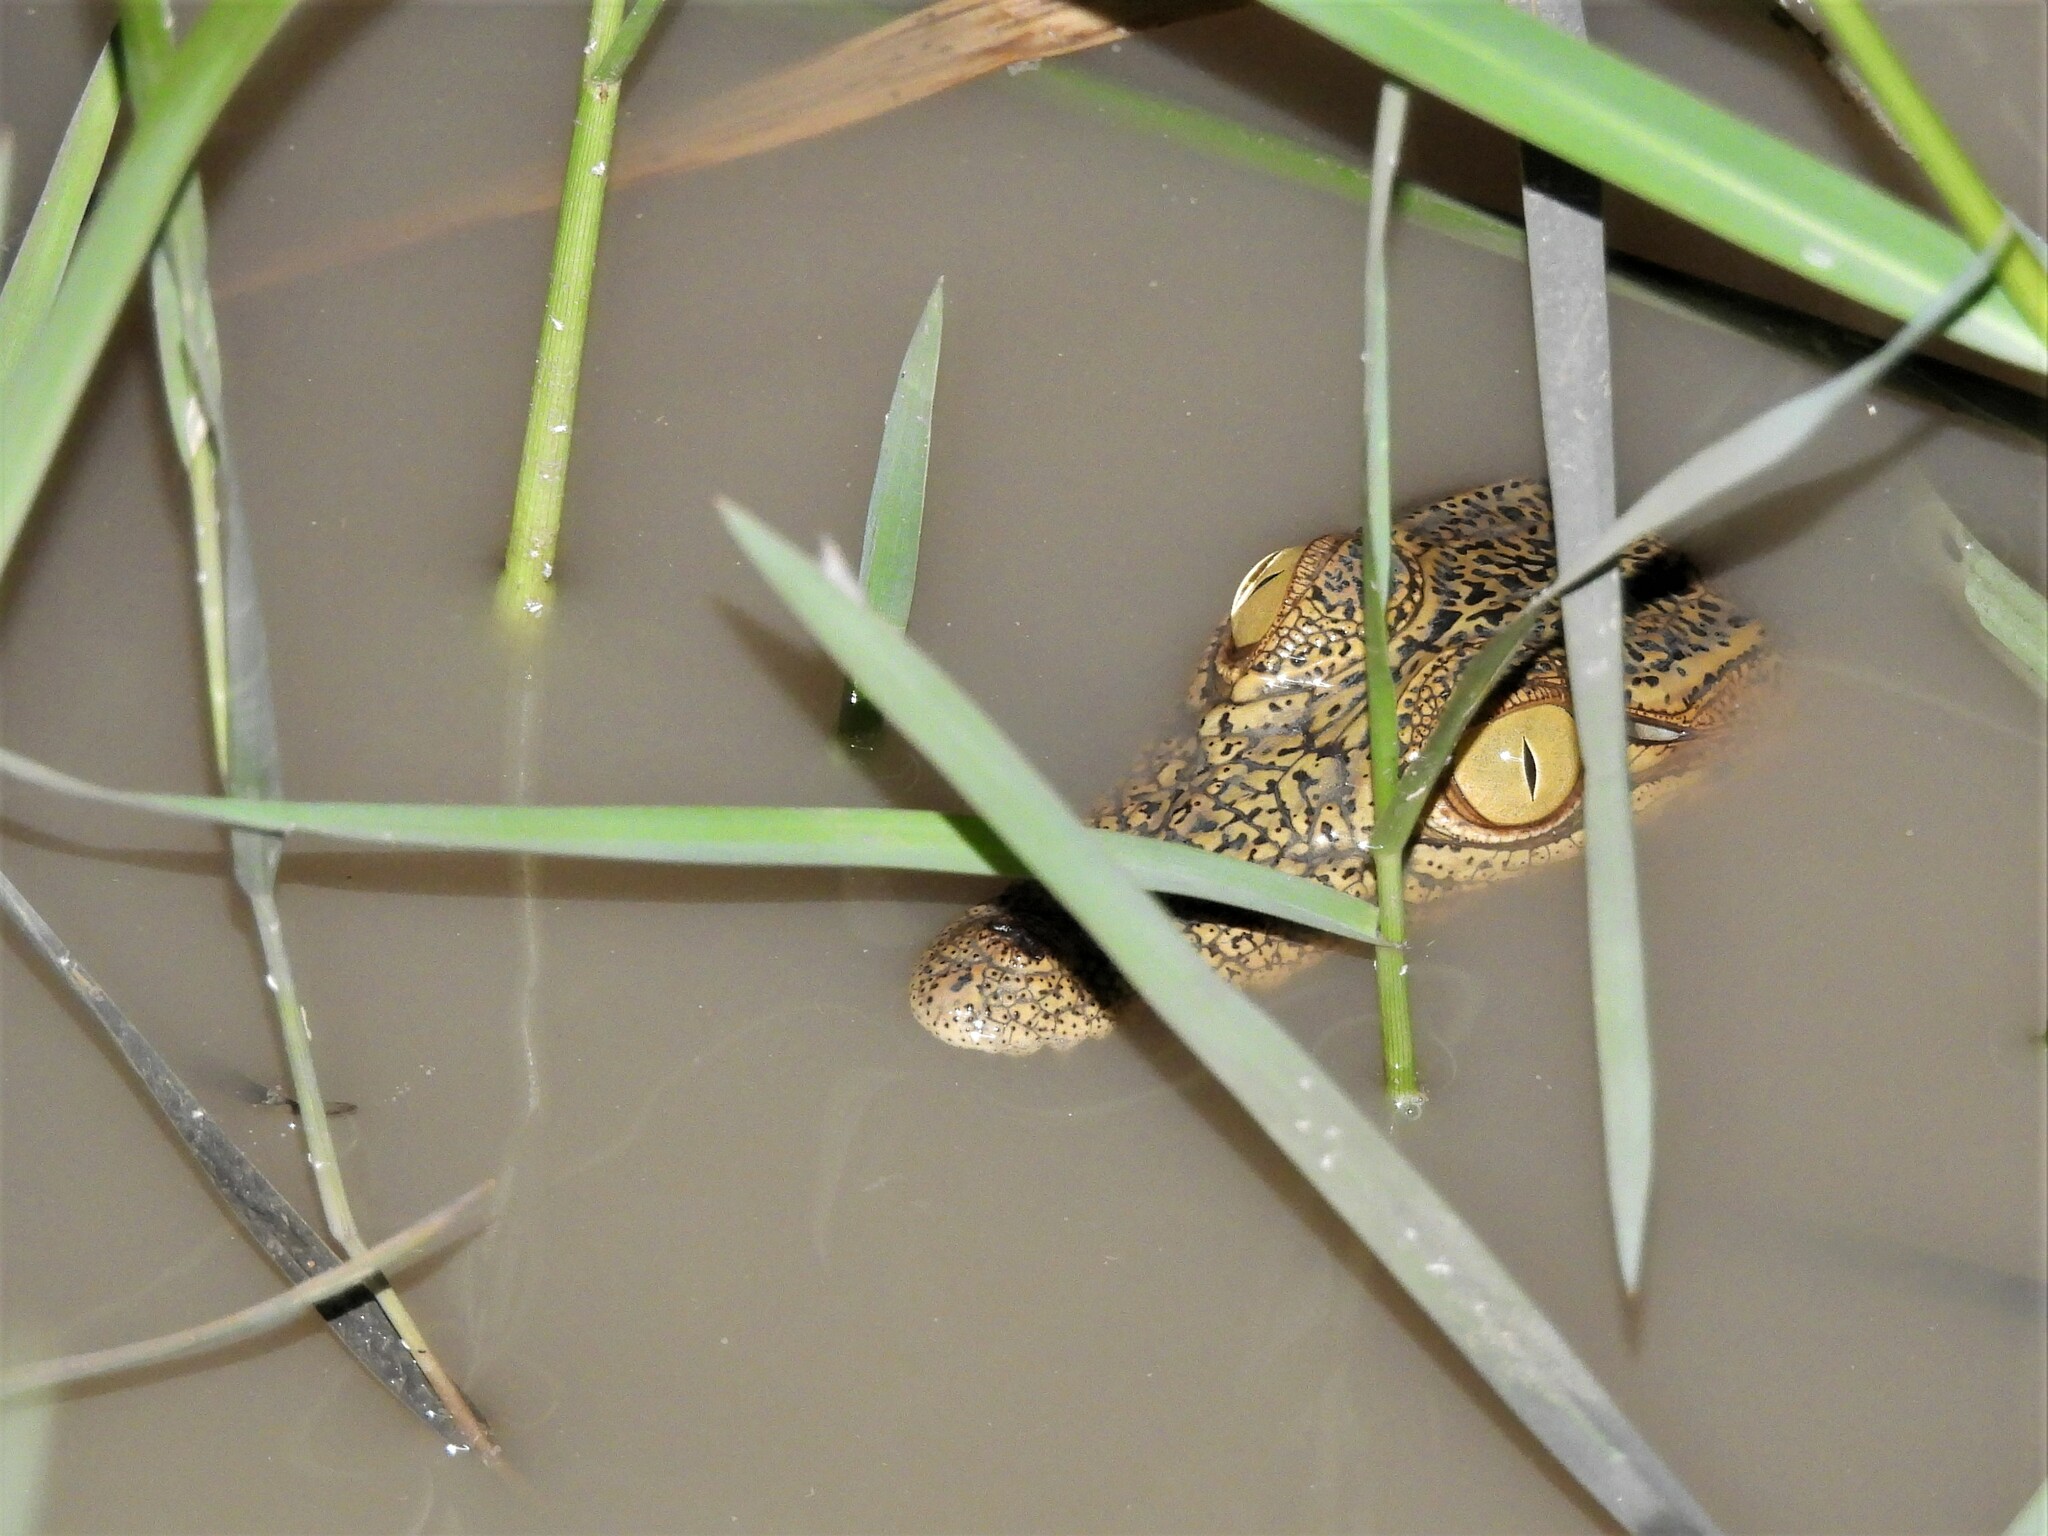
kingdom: Animalia
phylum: Chordata
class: Crocodylia
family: Crocodylidae
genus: Crocodylus
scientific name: Crocodylus niloticus
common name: Nile crocodile
